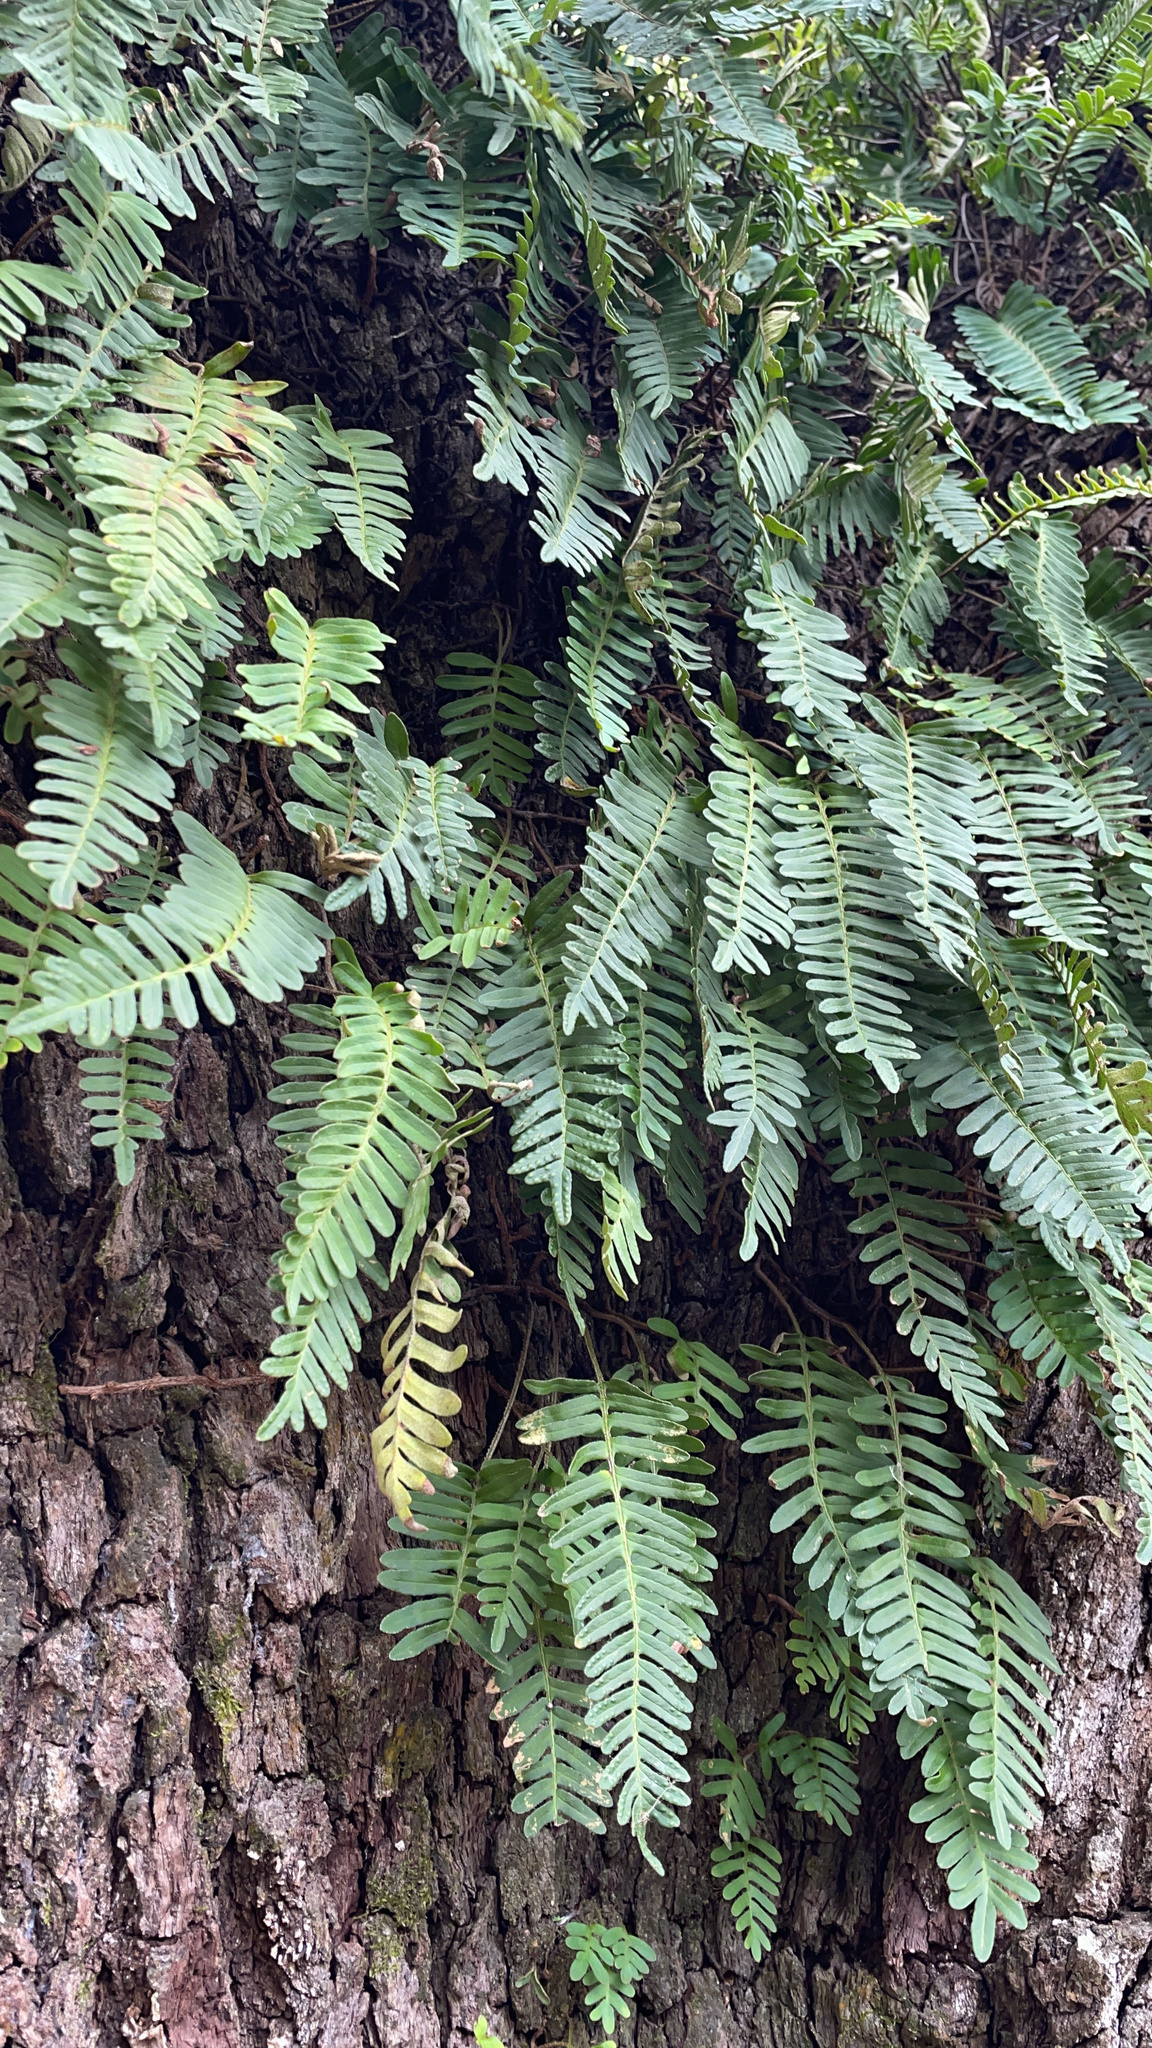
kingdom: Plantae
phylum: Tracheophyta
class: Polypodiopsida
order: Polypodiales
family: Polypodiaceae
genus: Pleopeltis
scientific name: Pleopeltis michauxiana
